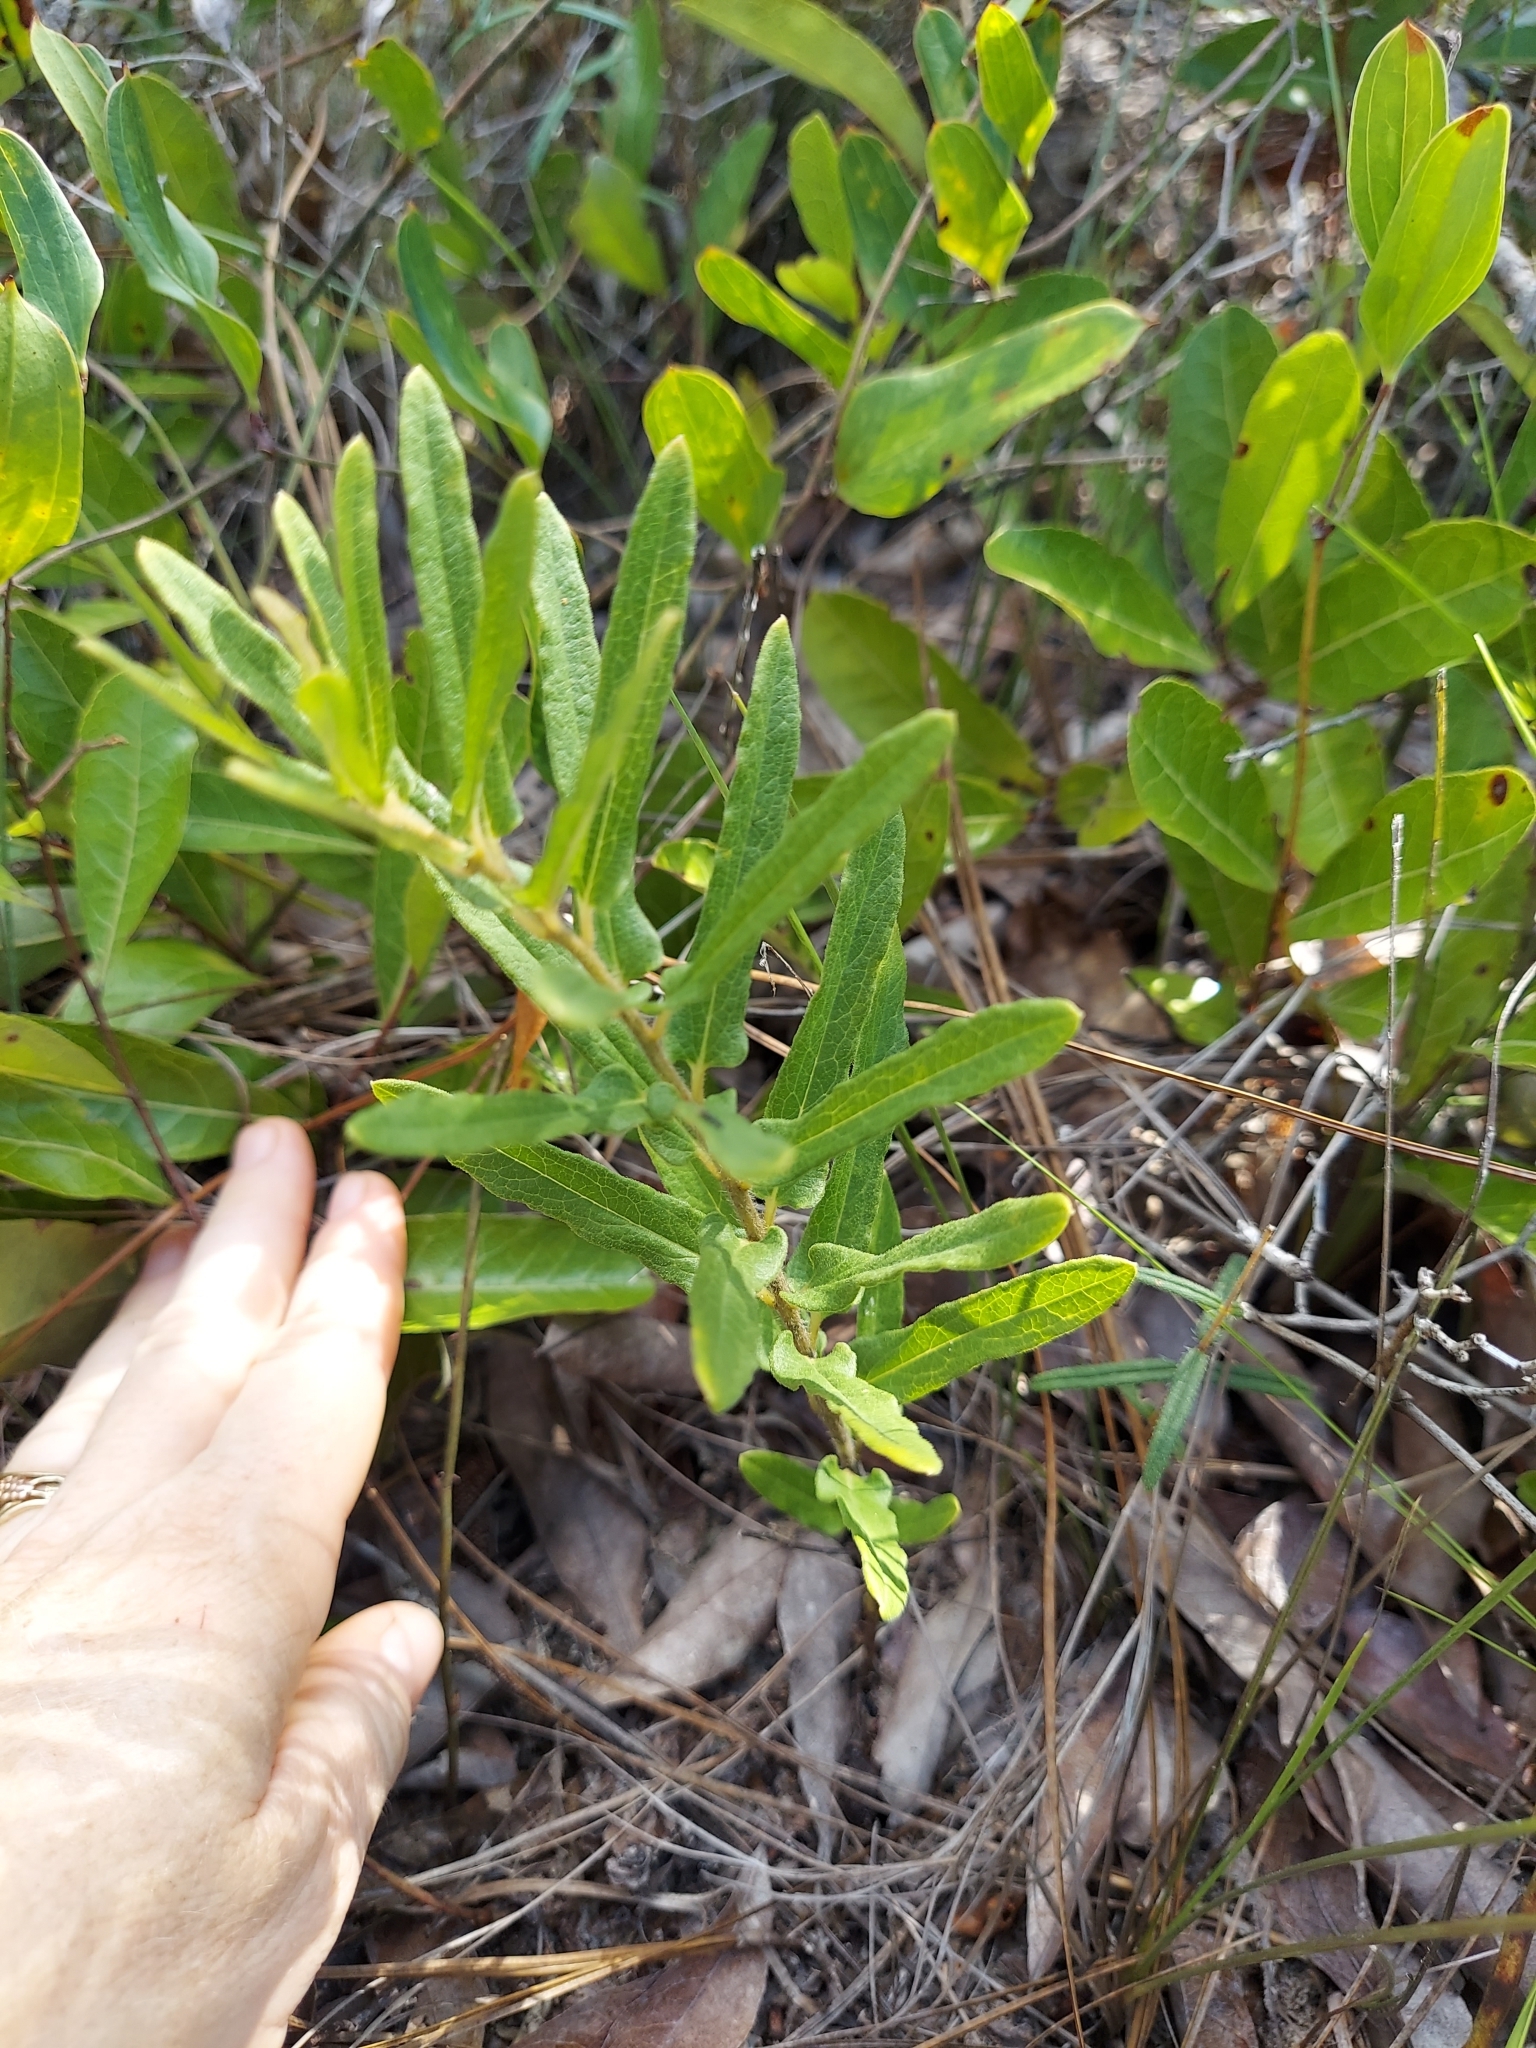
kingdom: Plantae
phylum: Tracheophyta
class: Magnoliopsida
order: Gentianales
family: Apocynaceae
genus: Asclepias
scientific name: Asclepias tuberosa
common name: Butterfly milkweed
